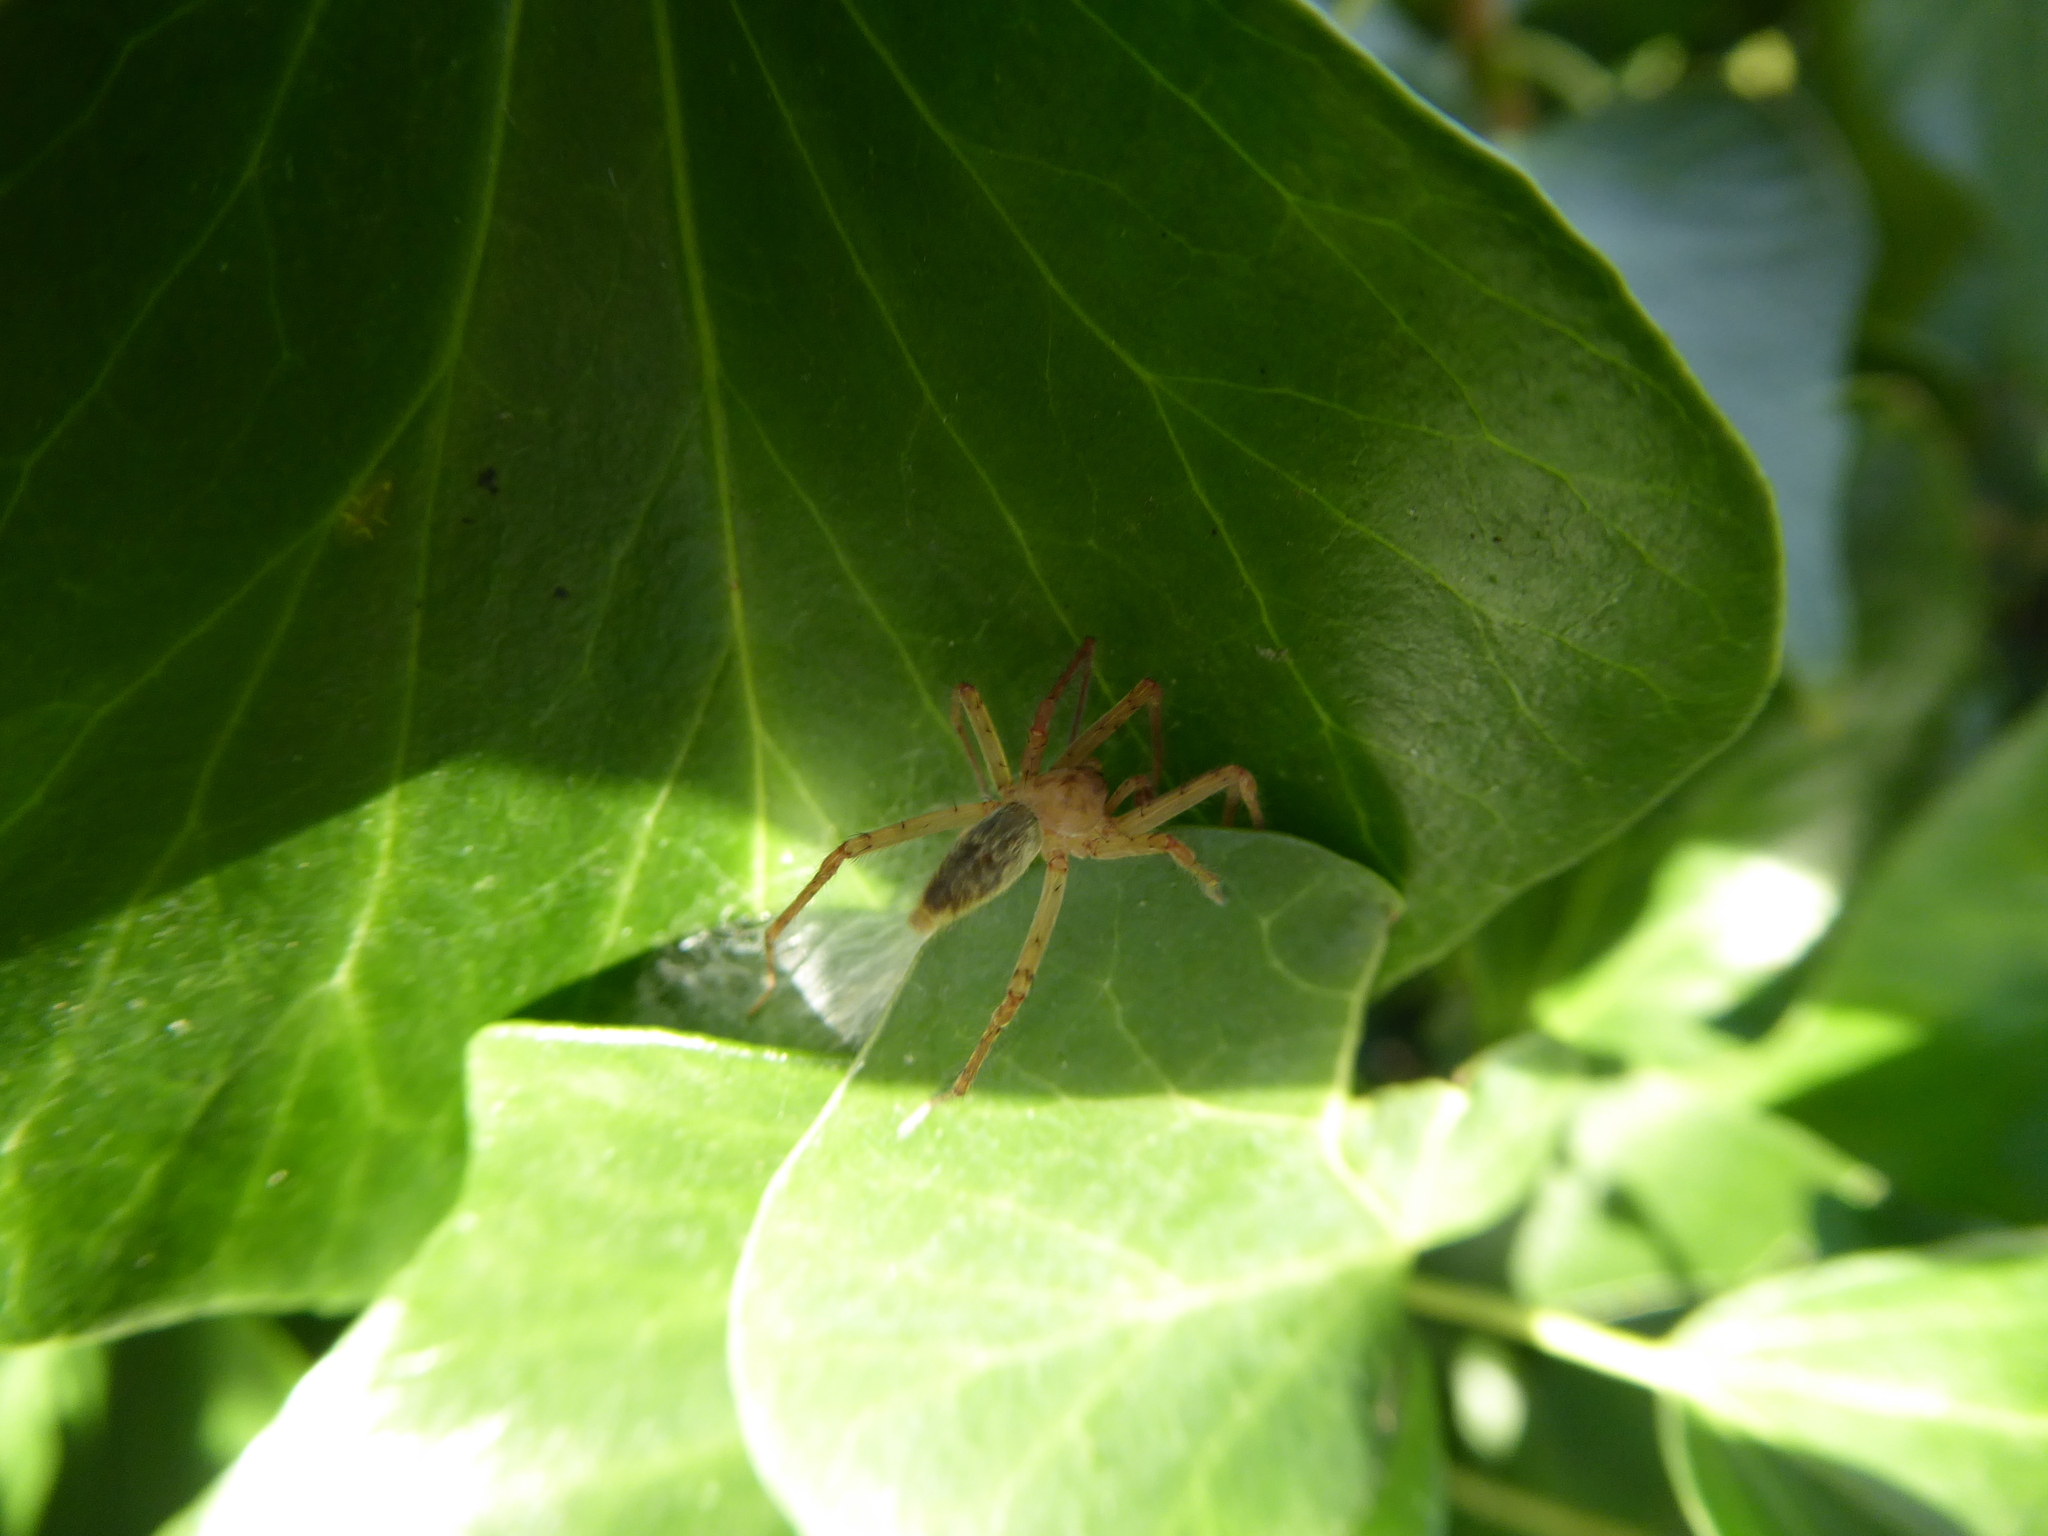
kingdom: Animalia
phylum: Arthropoda
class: Arachnida
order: Araneae
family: Anyphaenidae
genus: Anyphaena
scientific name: Anyphaena
